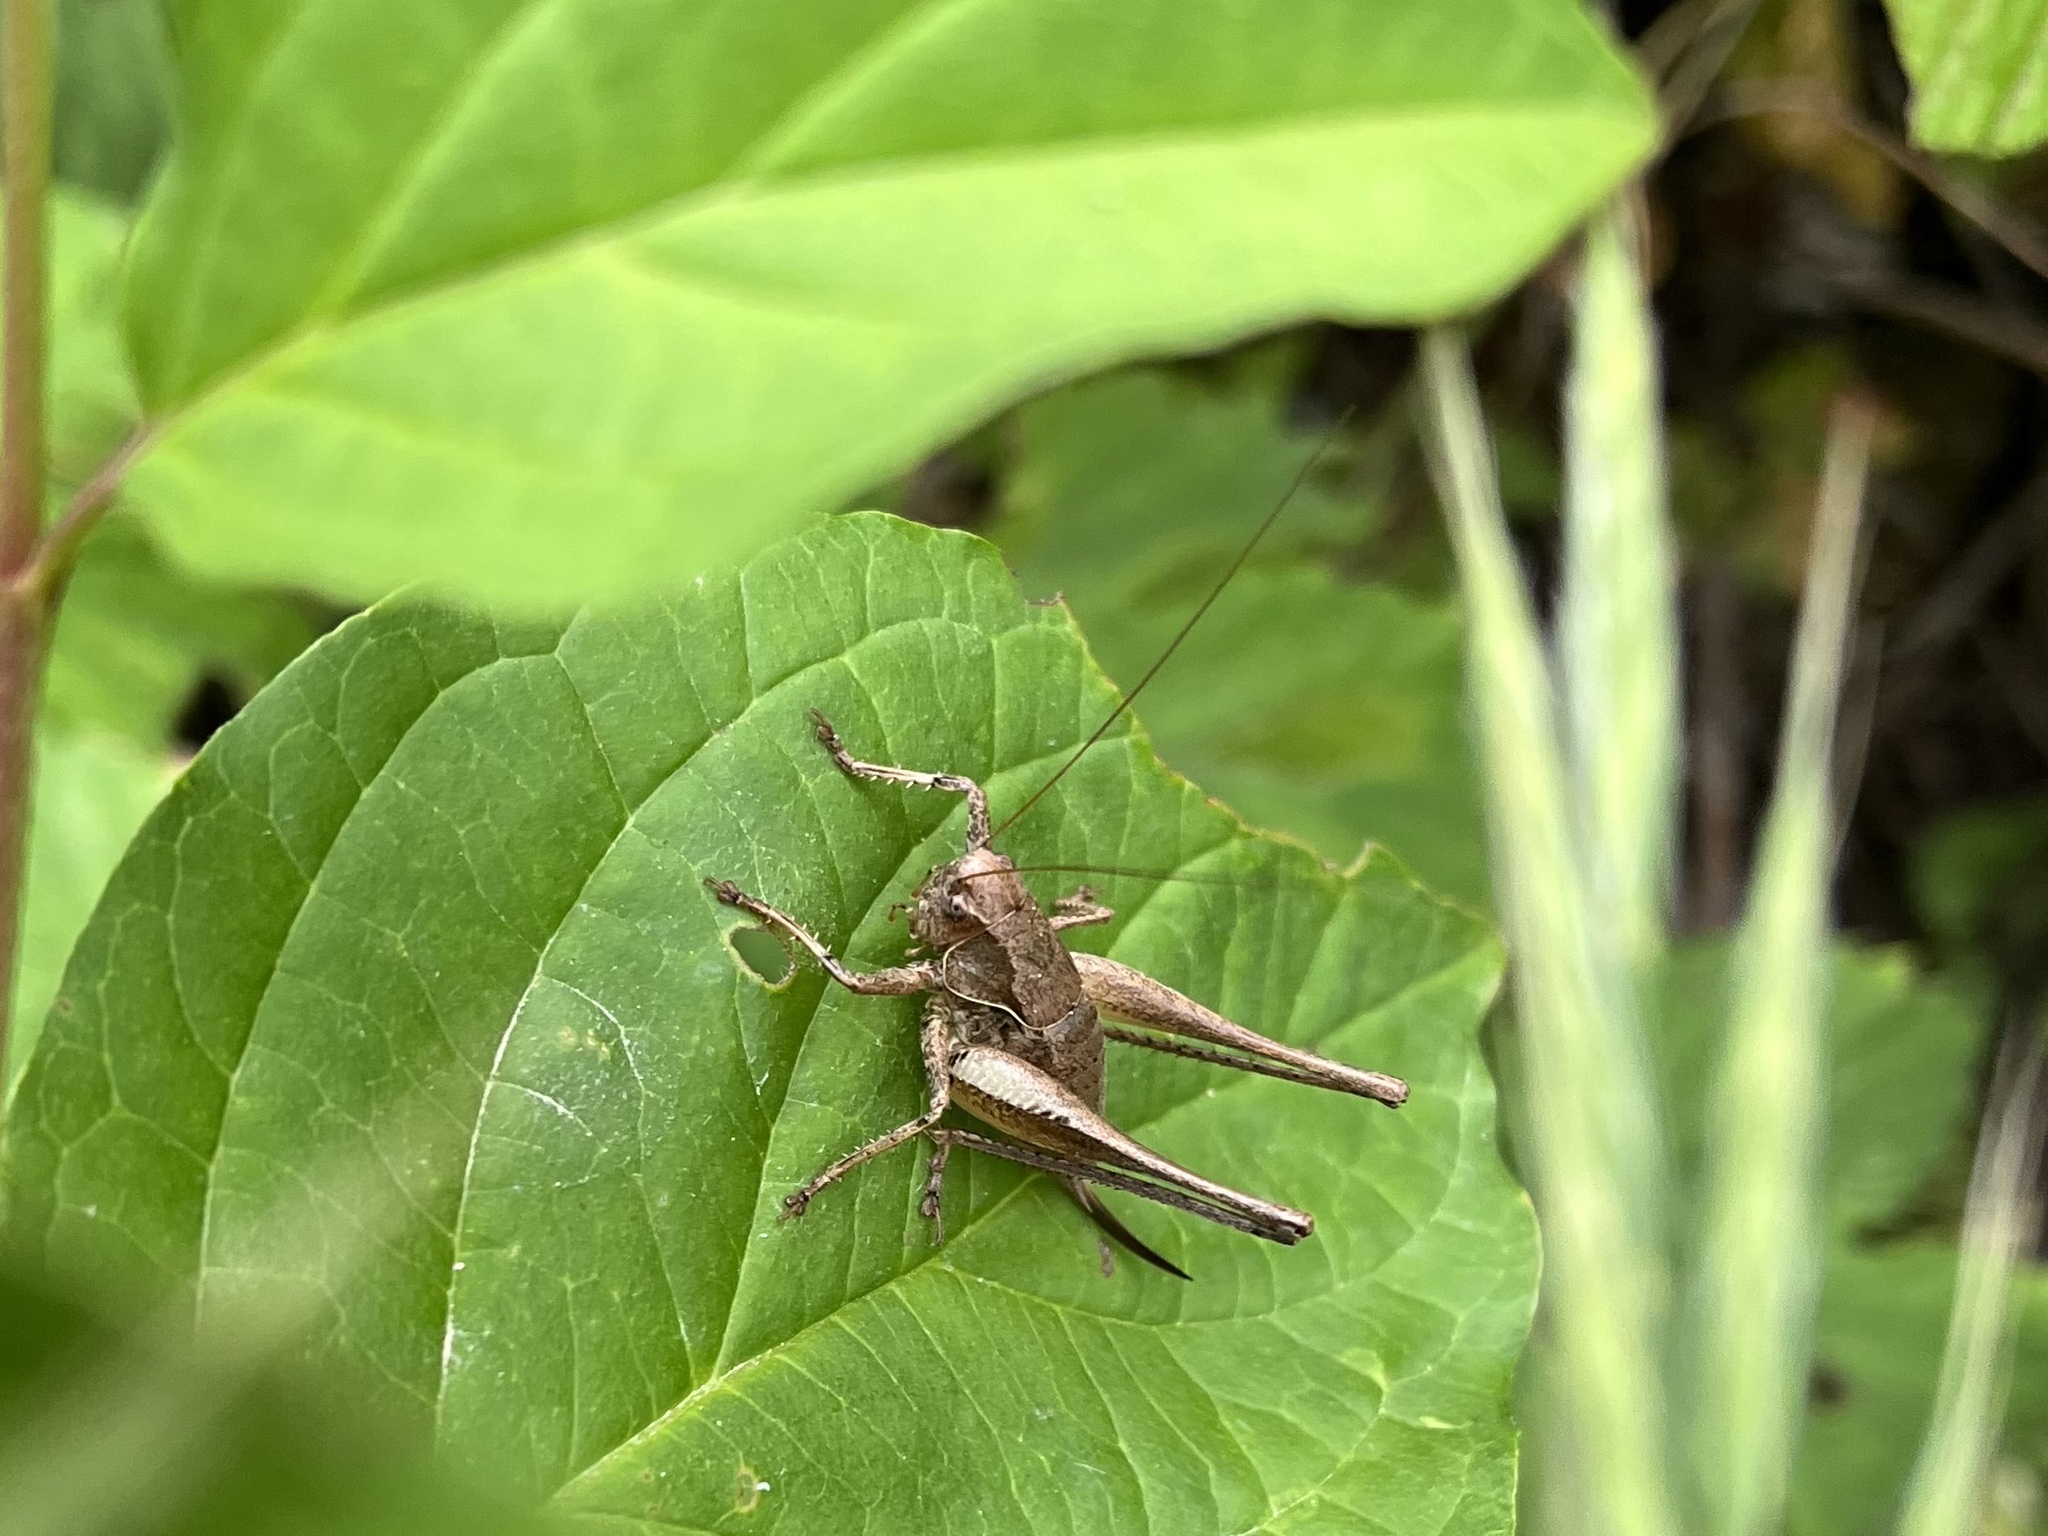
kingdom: Animalia
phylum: Arthropoda
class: Insecta
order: Orthoptera
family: Tettigoniidae
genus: Pholidoptera
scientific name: Pholidoptera griseoaptera
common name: Dark bush-cricket
